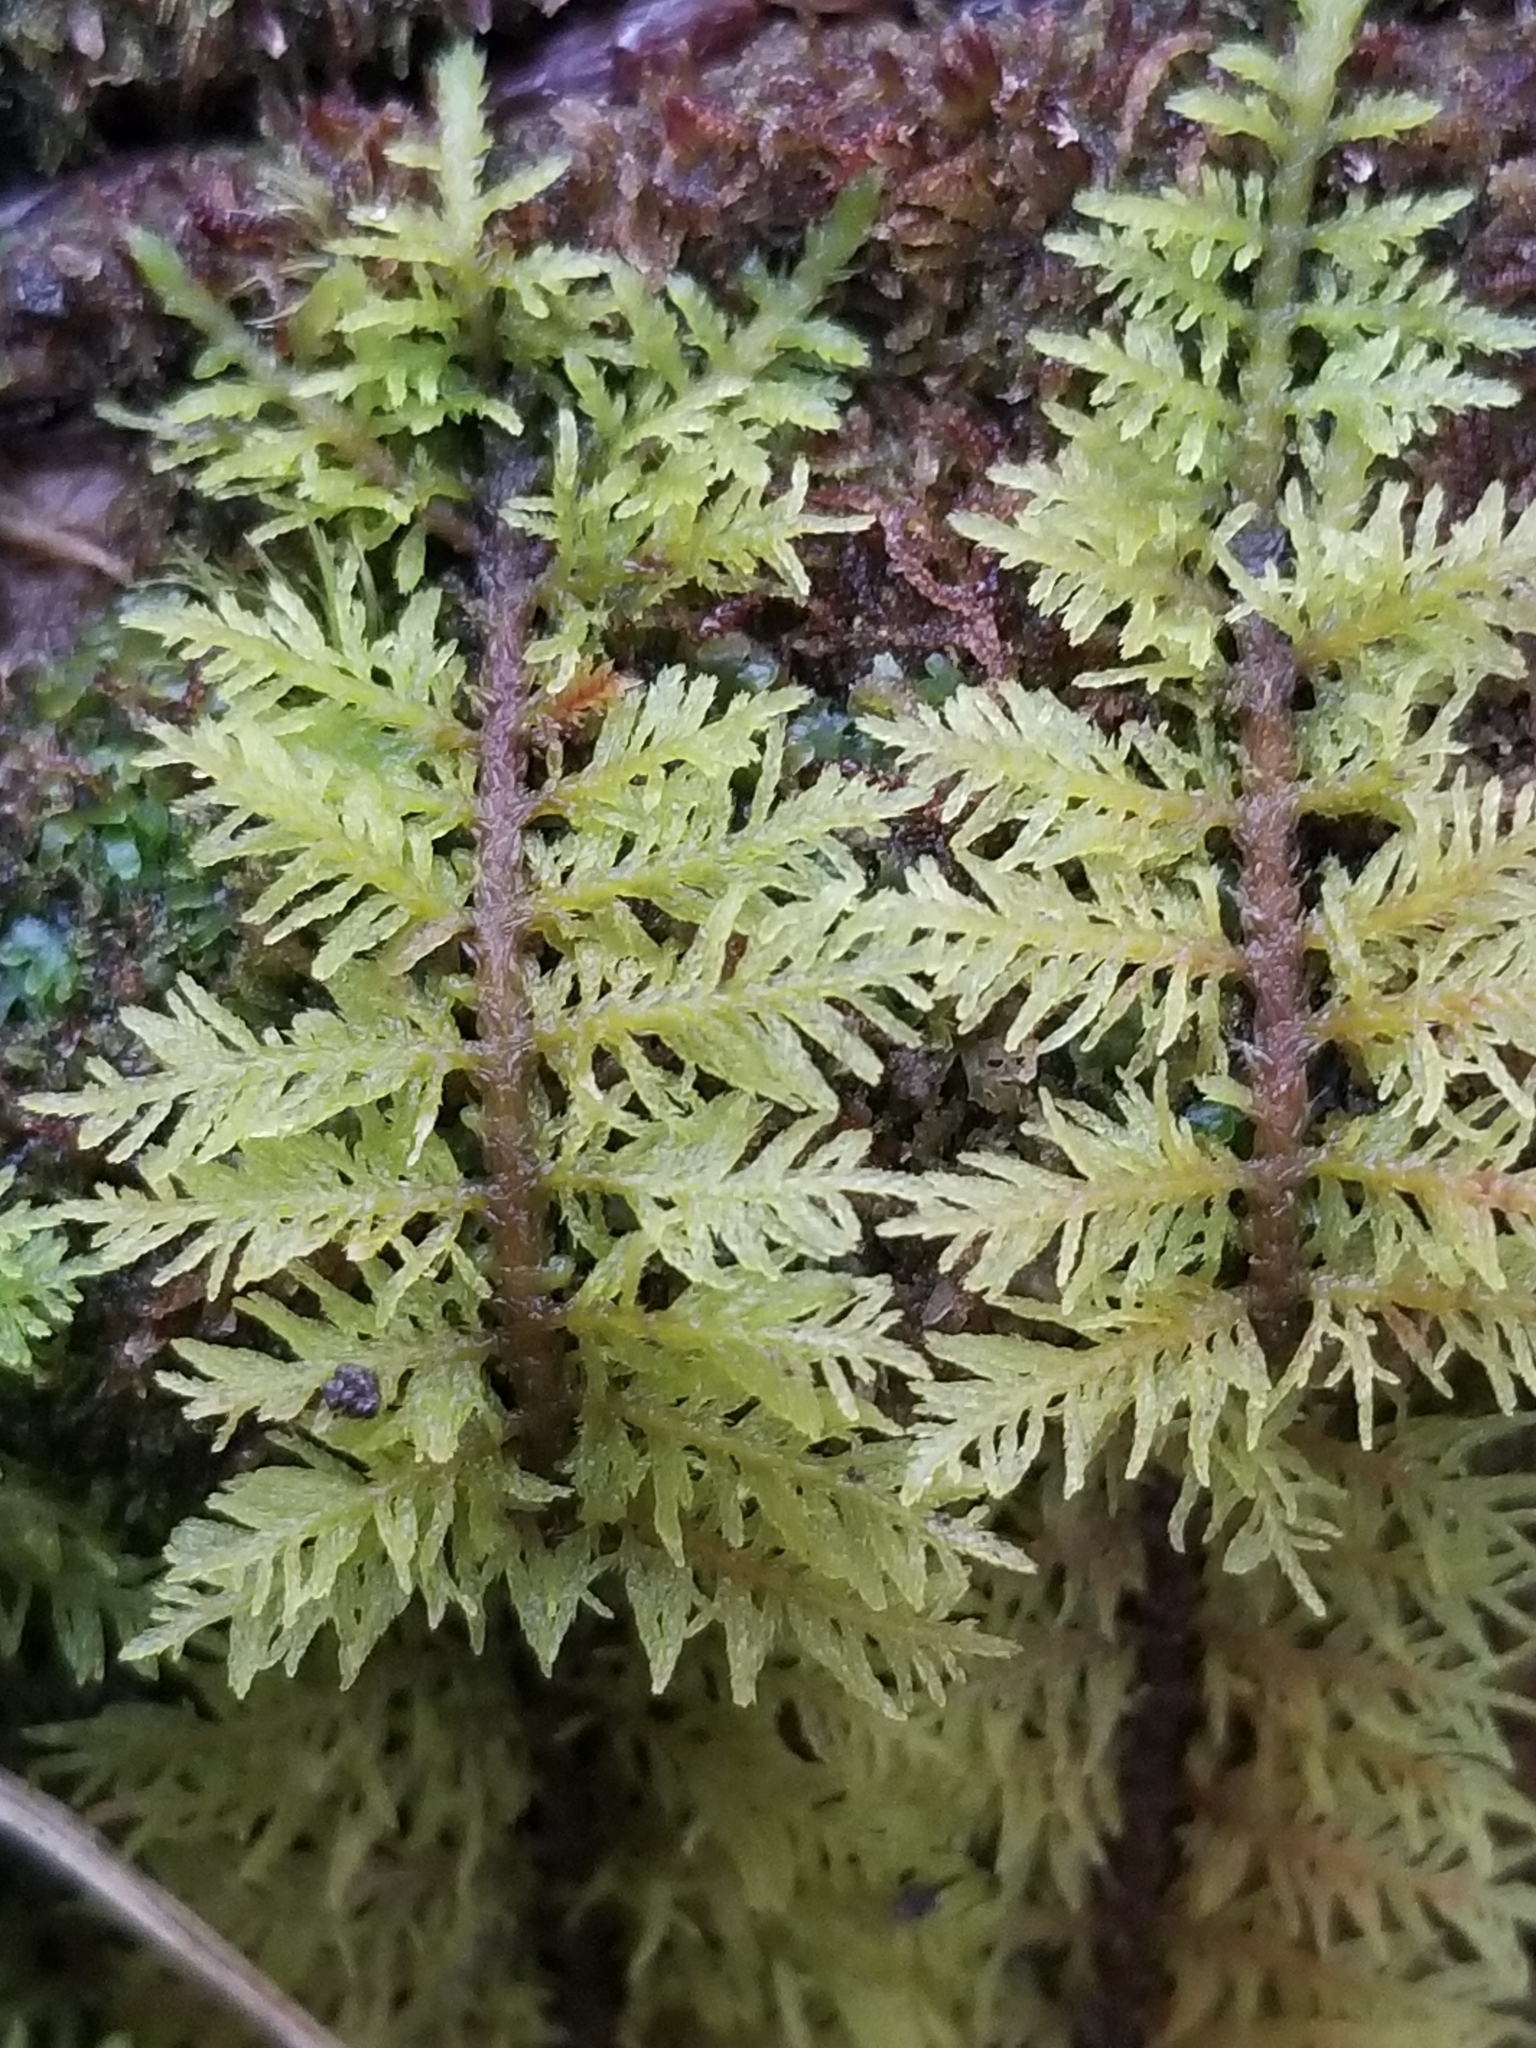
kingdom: Plantae
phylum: Bryophyta
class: Bryopsida
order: Hypnales
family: Hylocomiaceae
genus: Hylocomium
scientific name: Hylocomium splendens
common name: Stairstep moss
